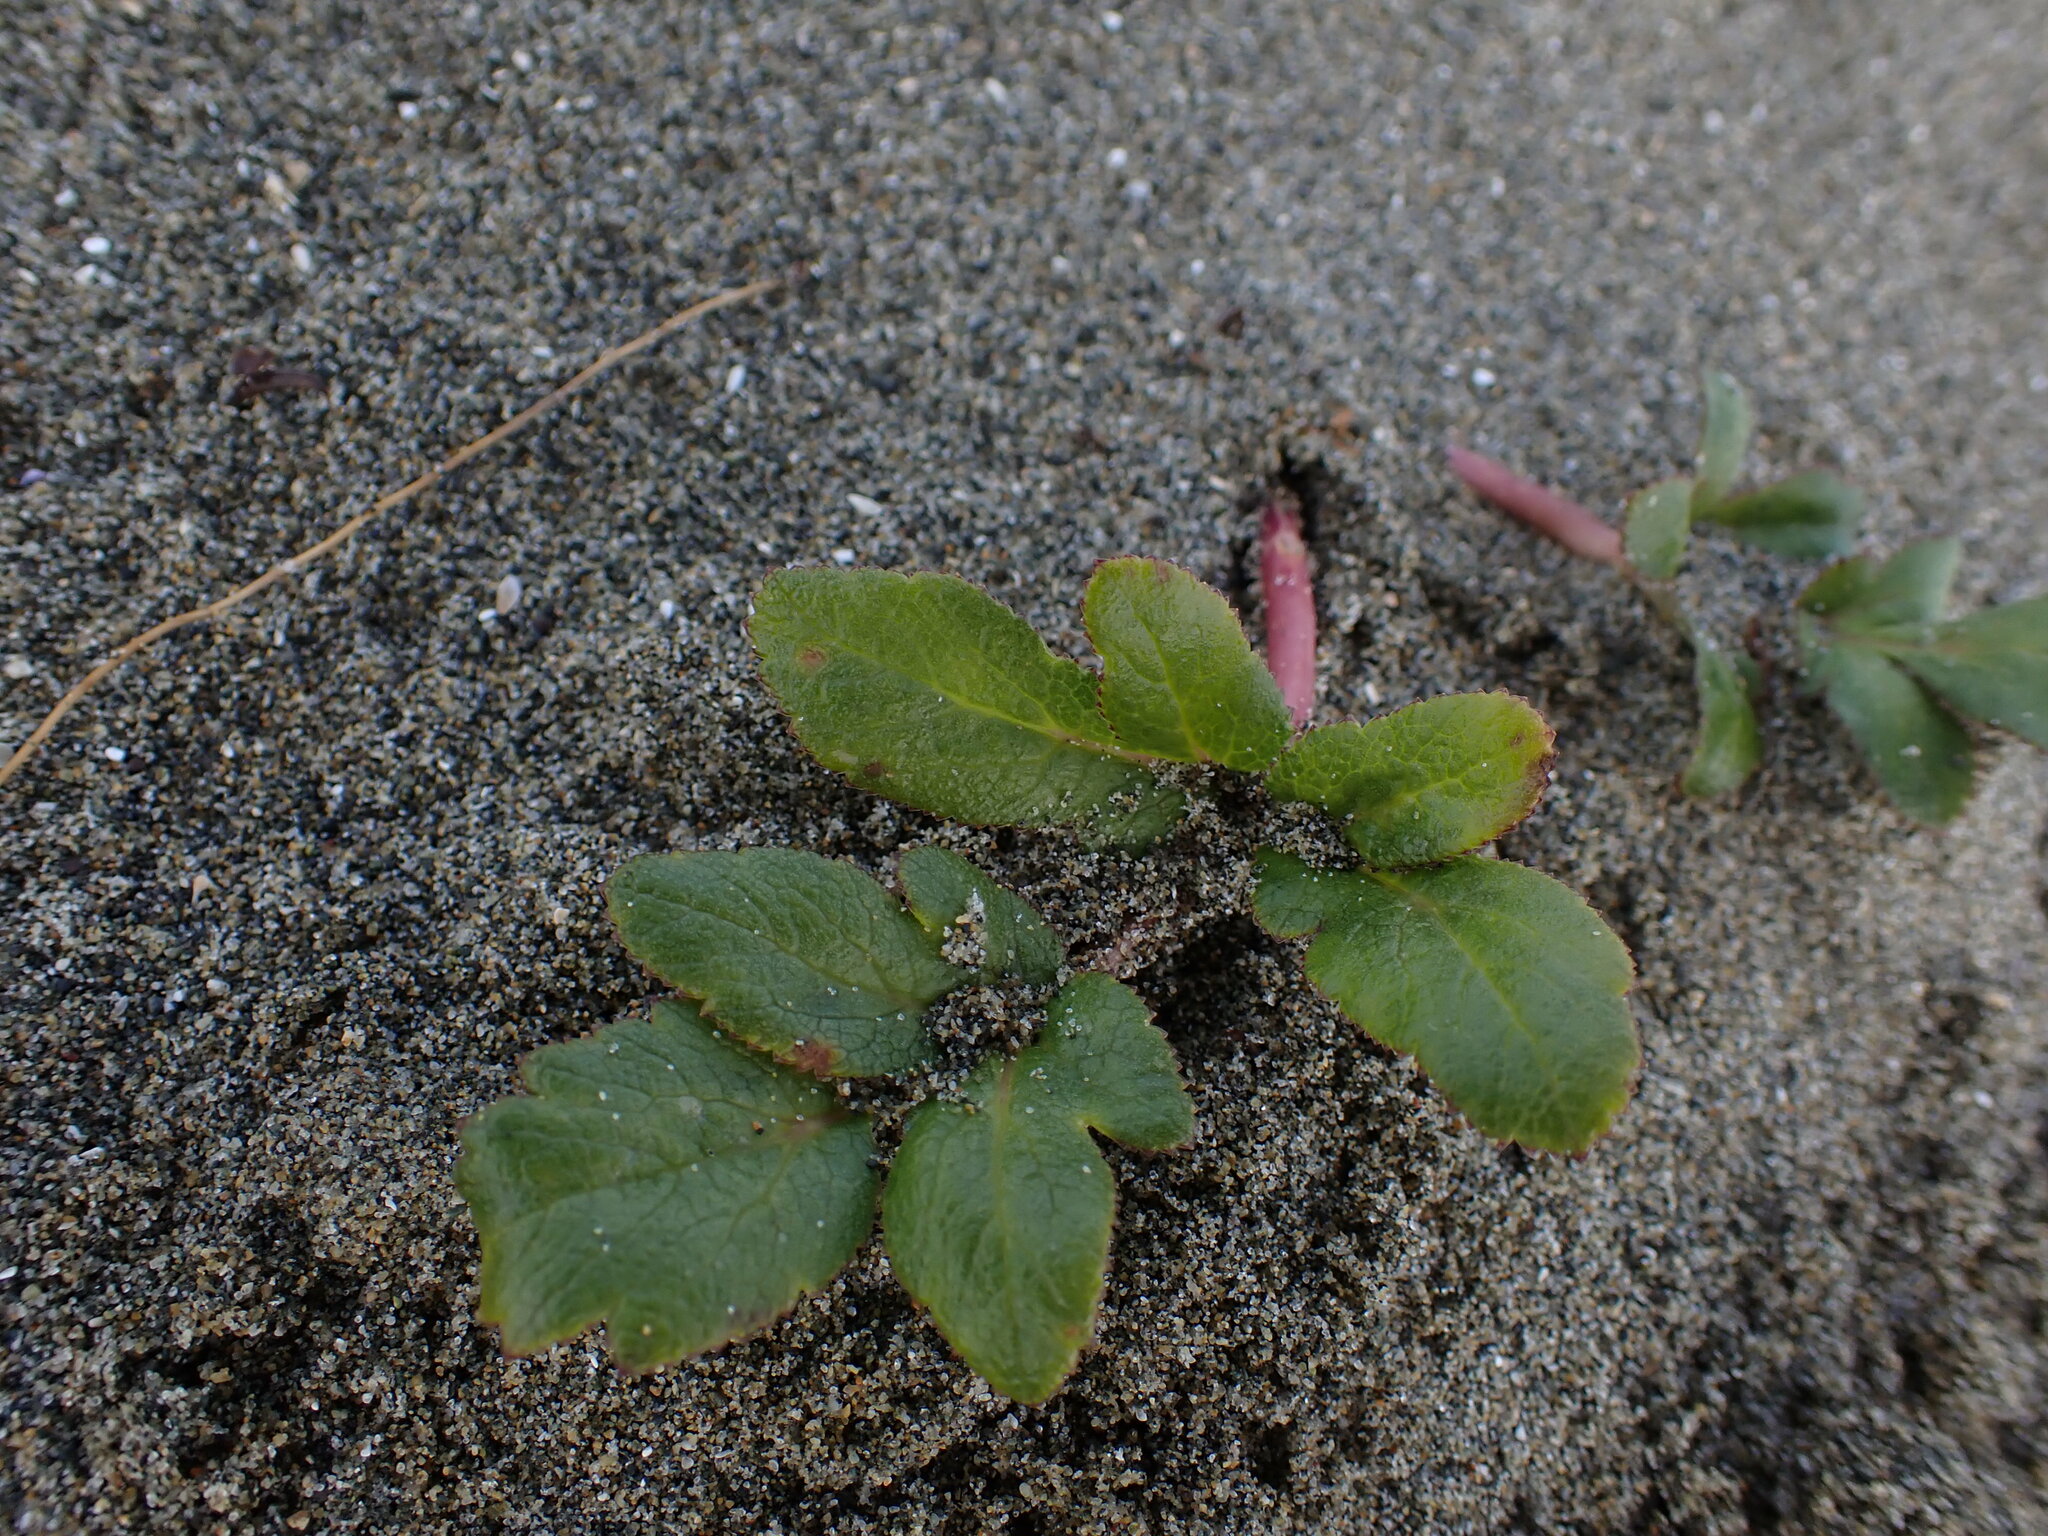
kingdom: Plantae
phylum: Tracheophyta
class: Magnoliopsida
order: Apiales
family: Apiaceae
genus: Angelica
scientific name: Angelica leiocarpa
